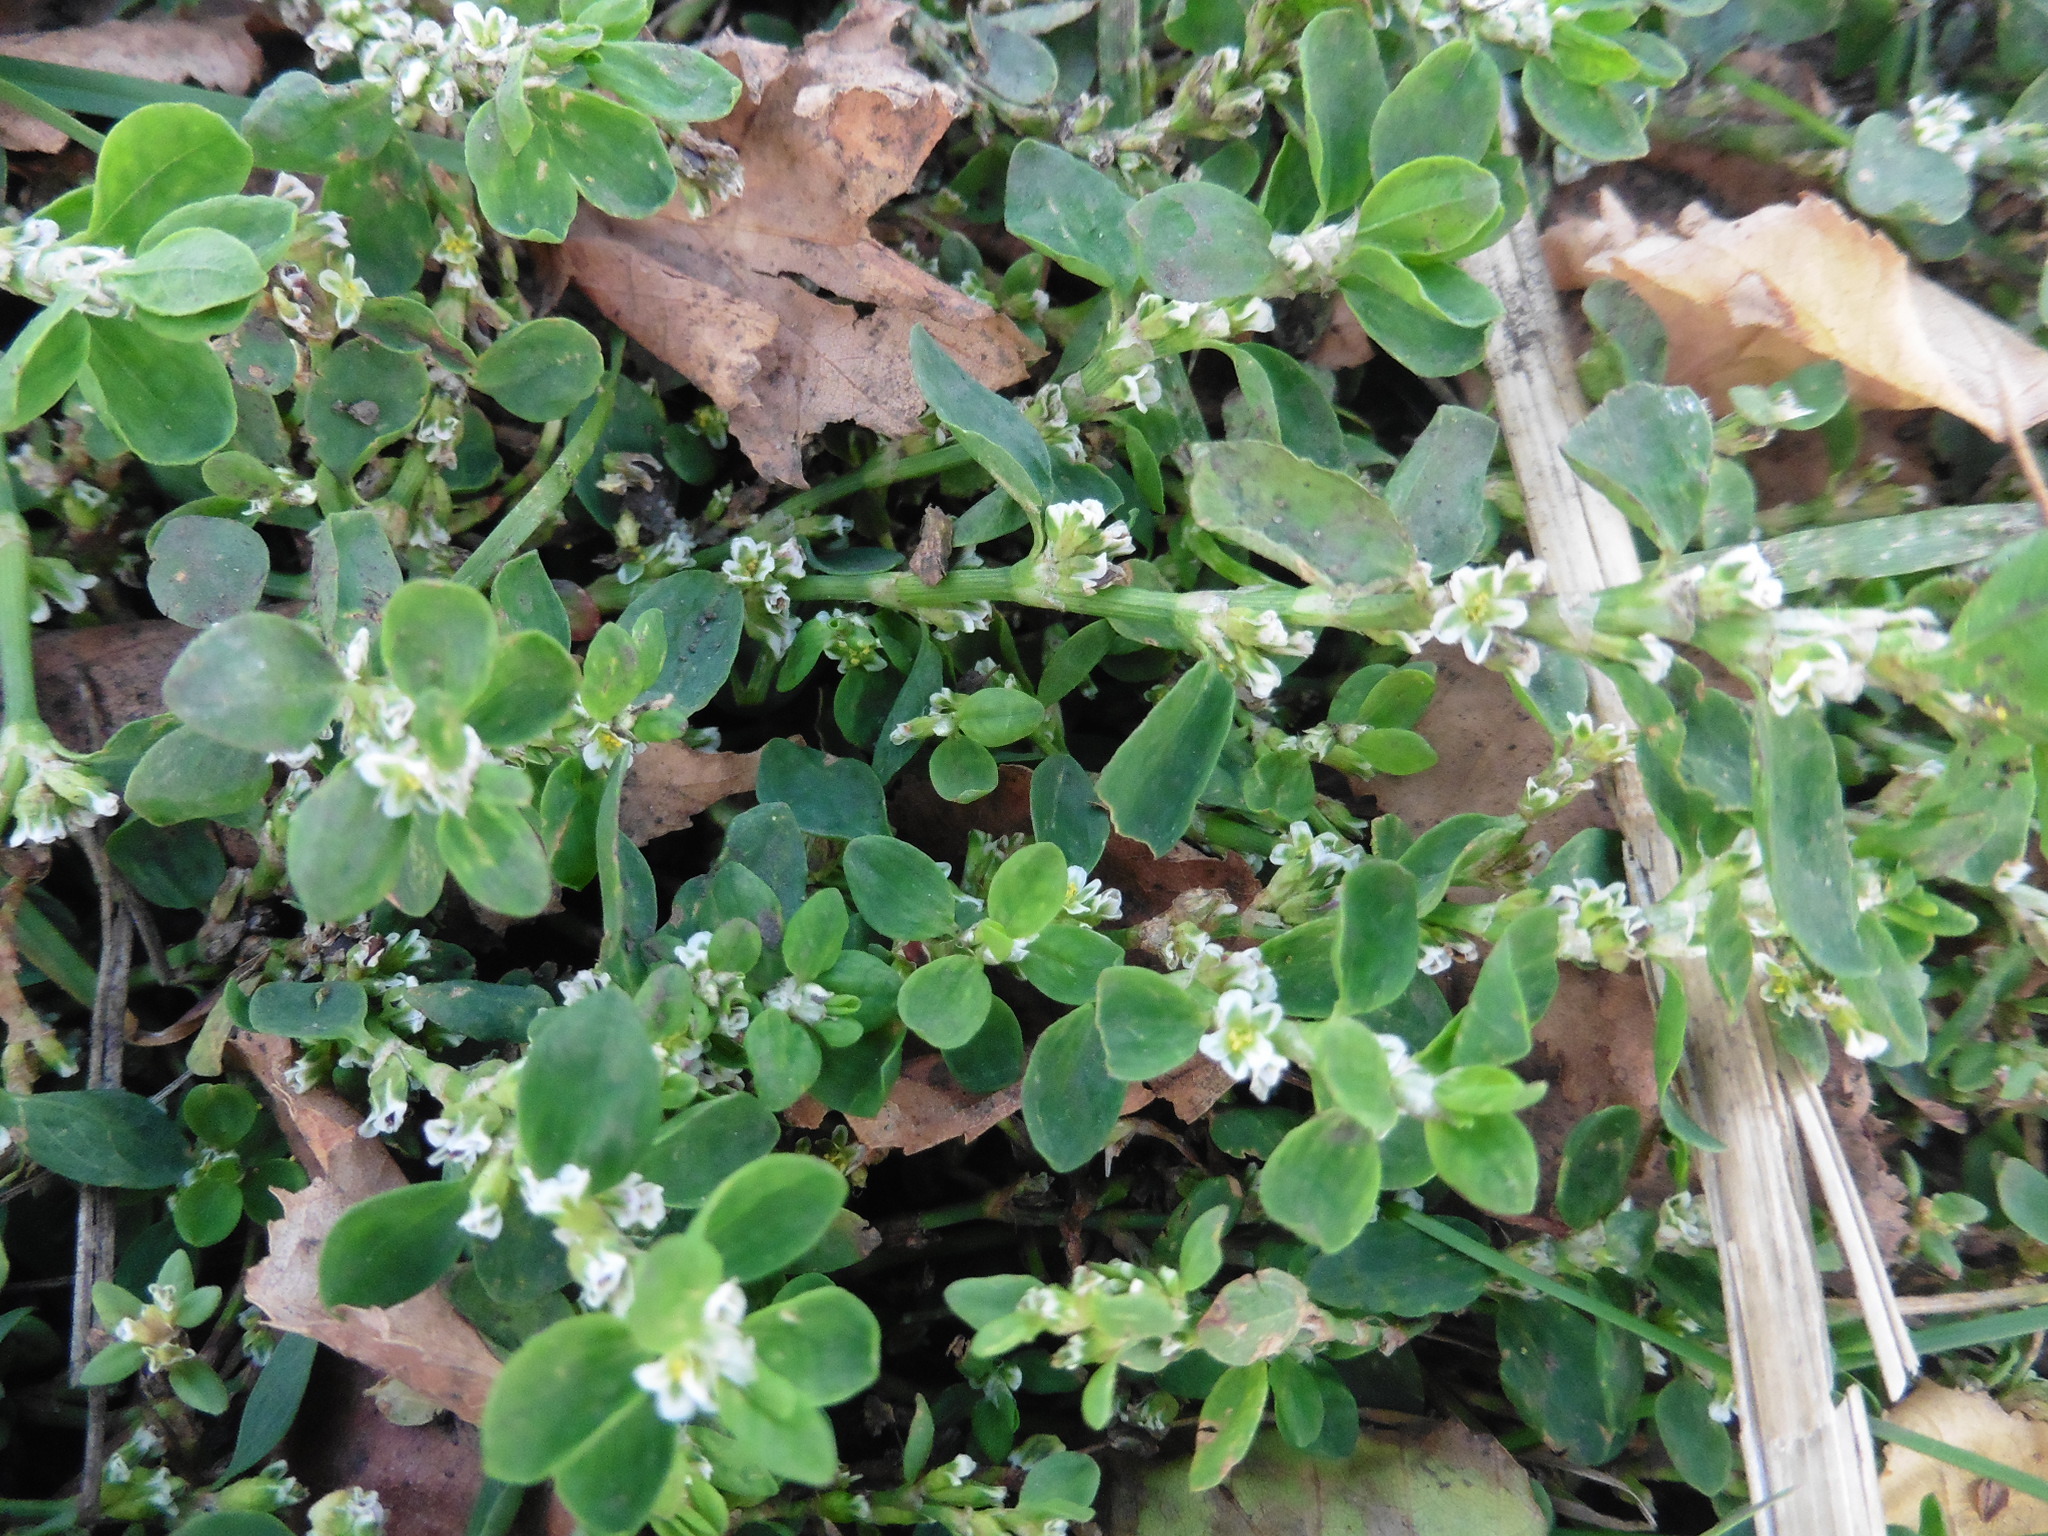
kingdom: Plantae
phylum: Tracheophyta
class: Magnoliopsida
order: Caryophyllales
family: Polygonaceae
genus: Polygonum
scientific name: Polygonum
